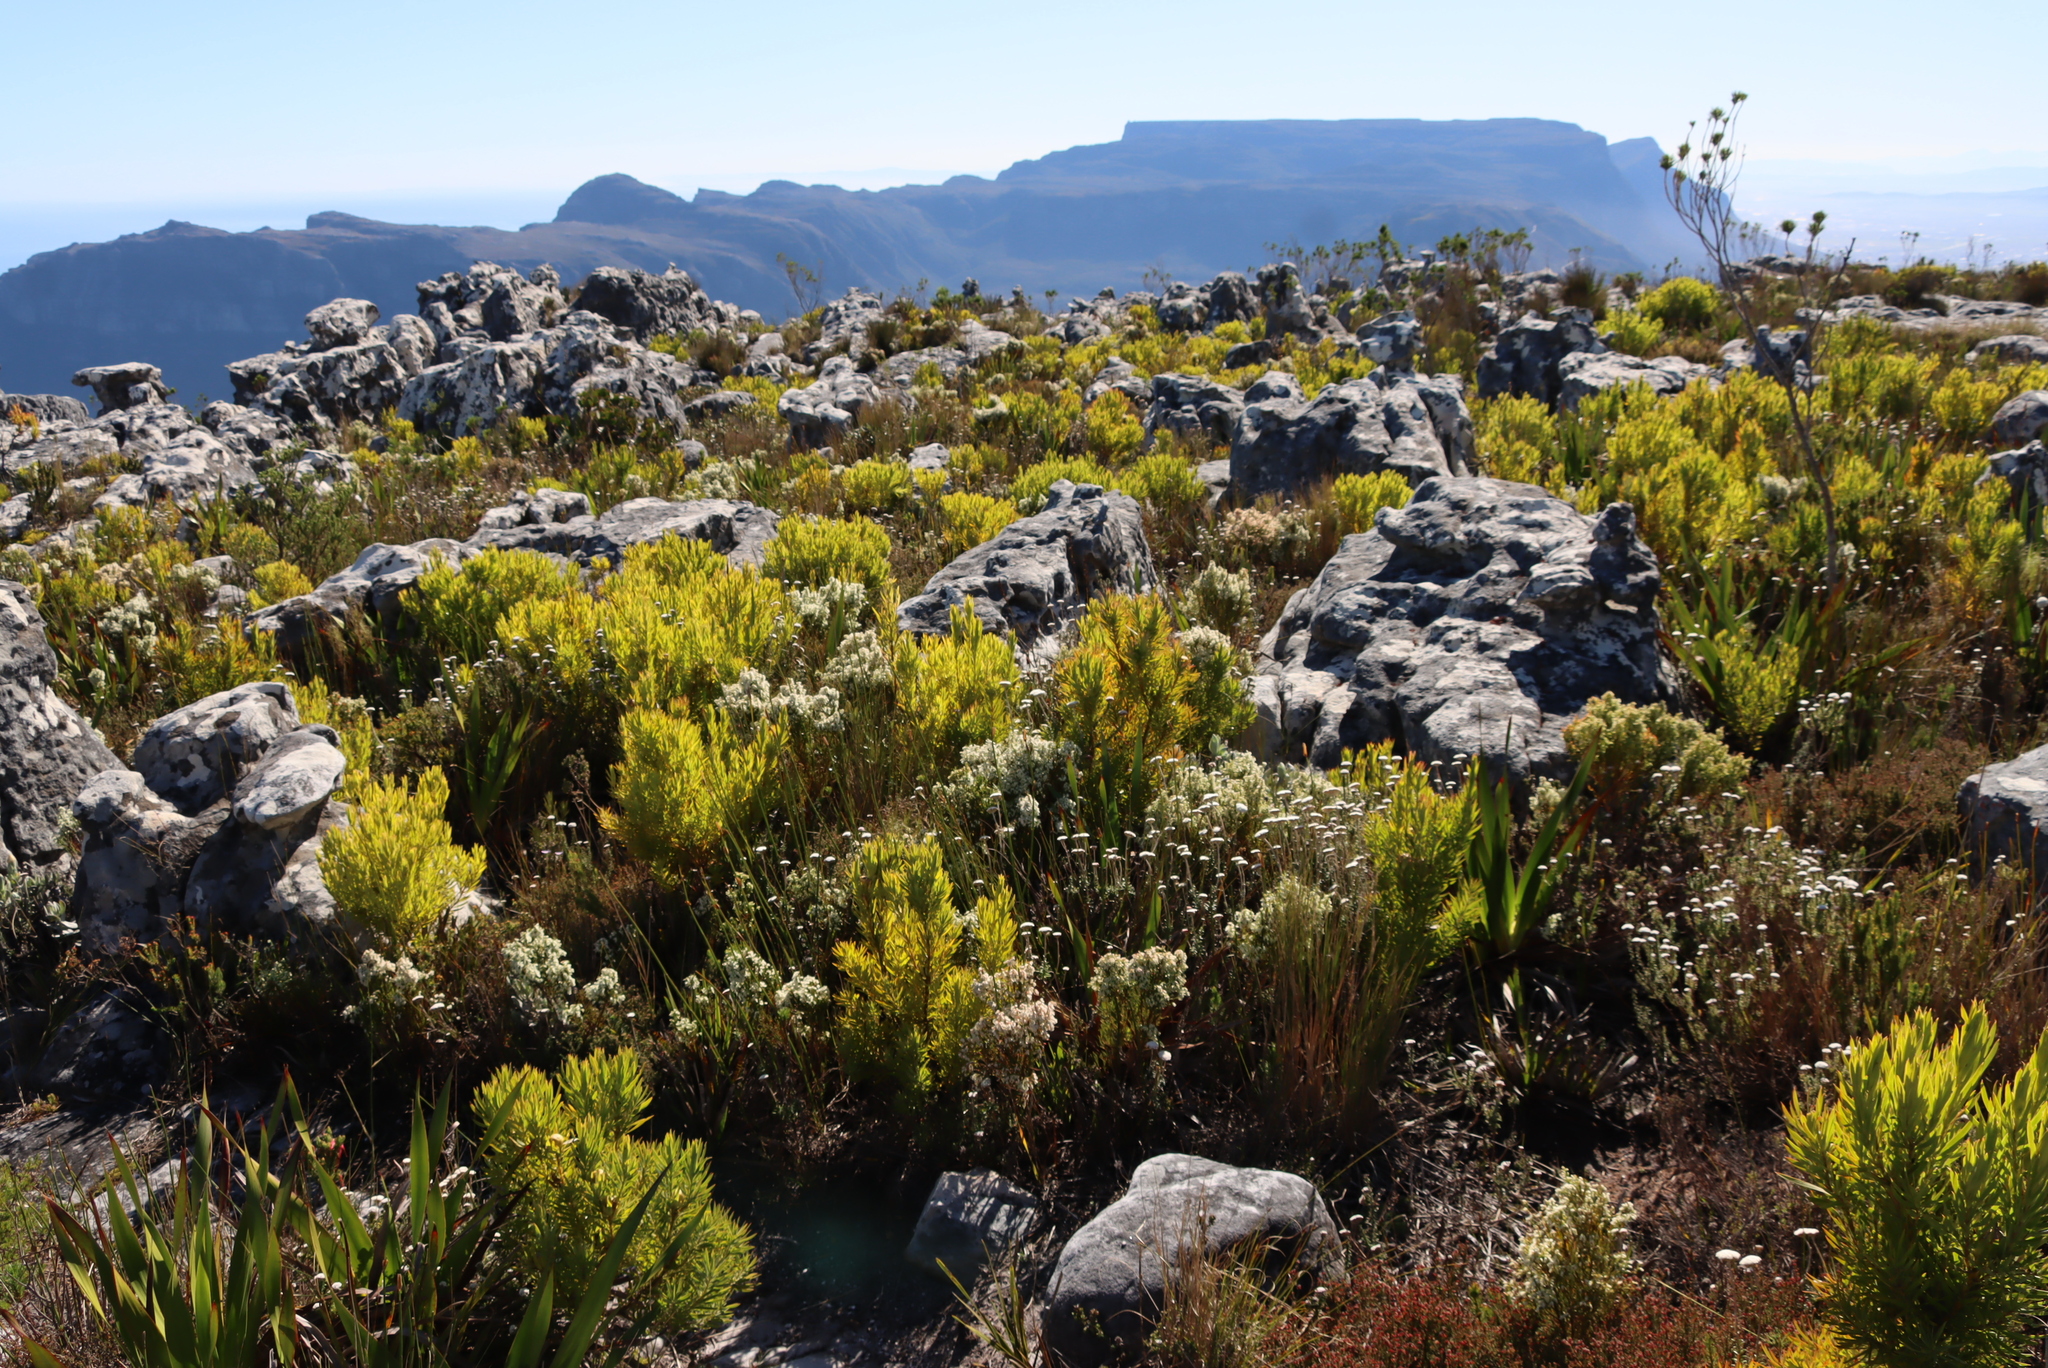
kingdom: Plantae
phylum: Tracheophyta
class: Magnoliopsida
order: Ericales
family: Ericaceae
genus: Erica
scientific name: Erica lutea
